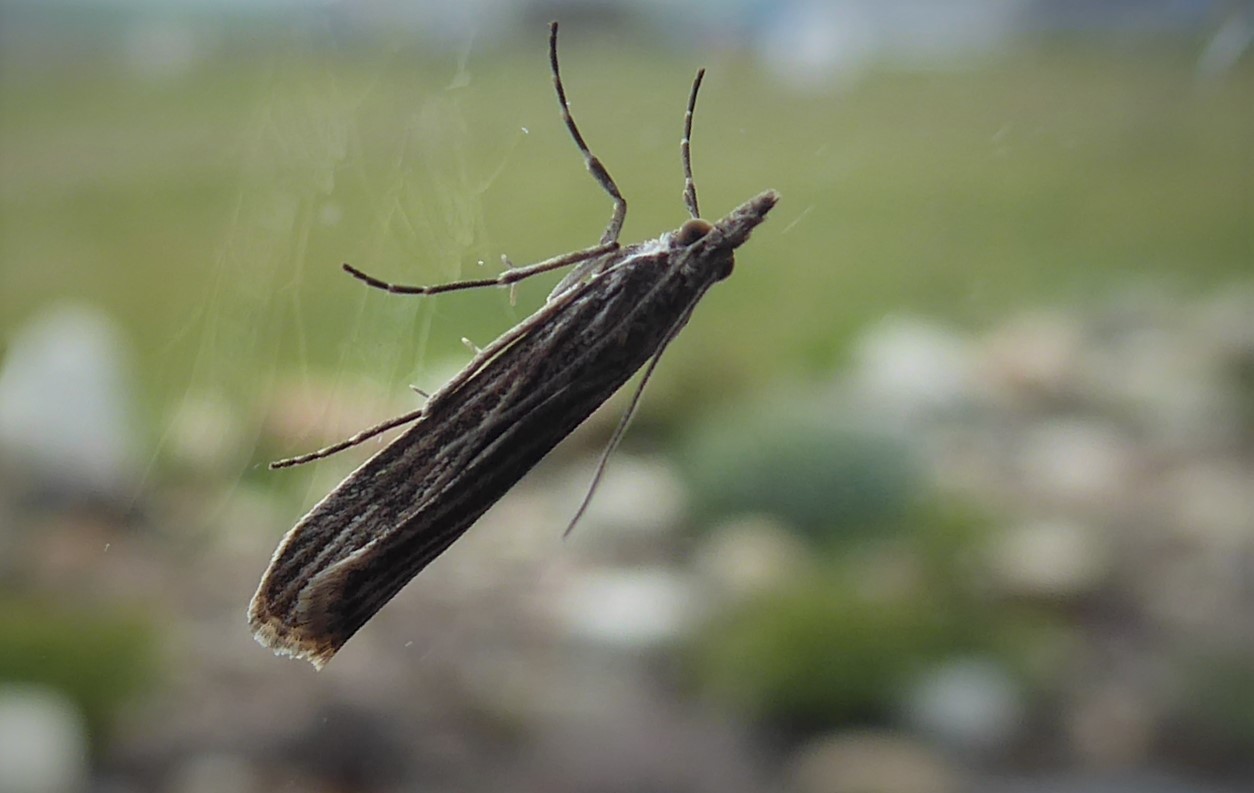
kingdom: Animalia
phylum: Arthropoda
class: Insecta
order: Lepidoptera
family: Crambidae
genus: Eudonia
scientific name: Eudonia atmogramma
